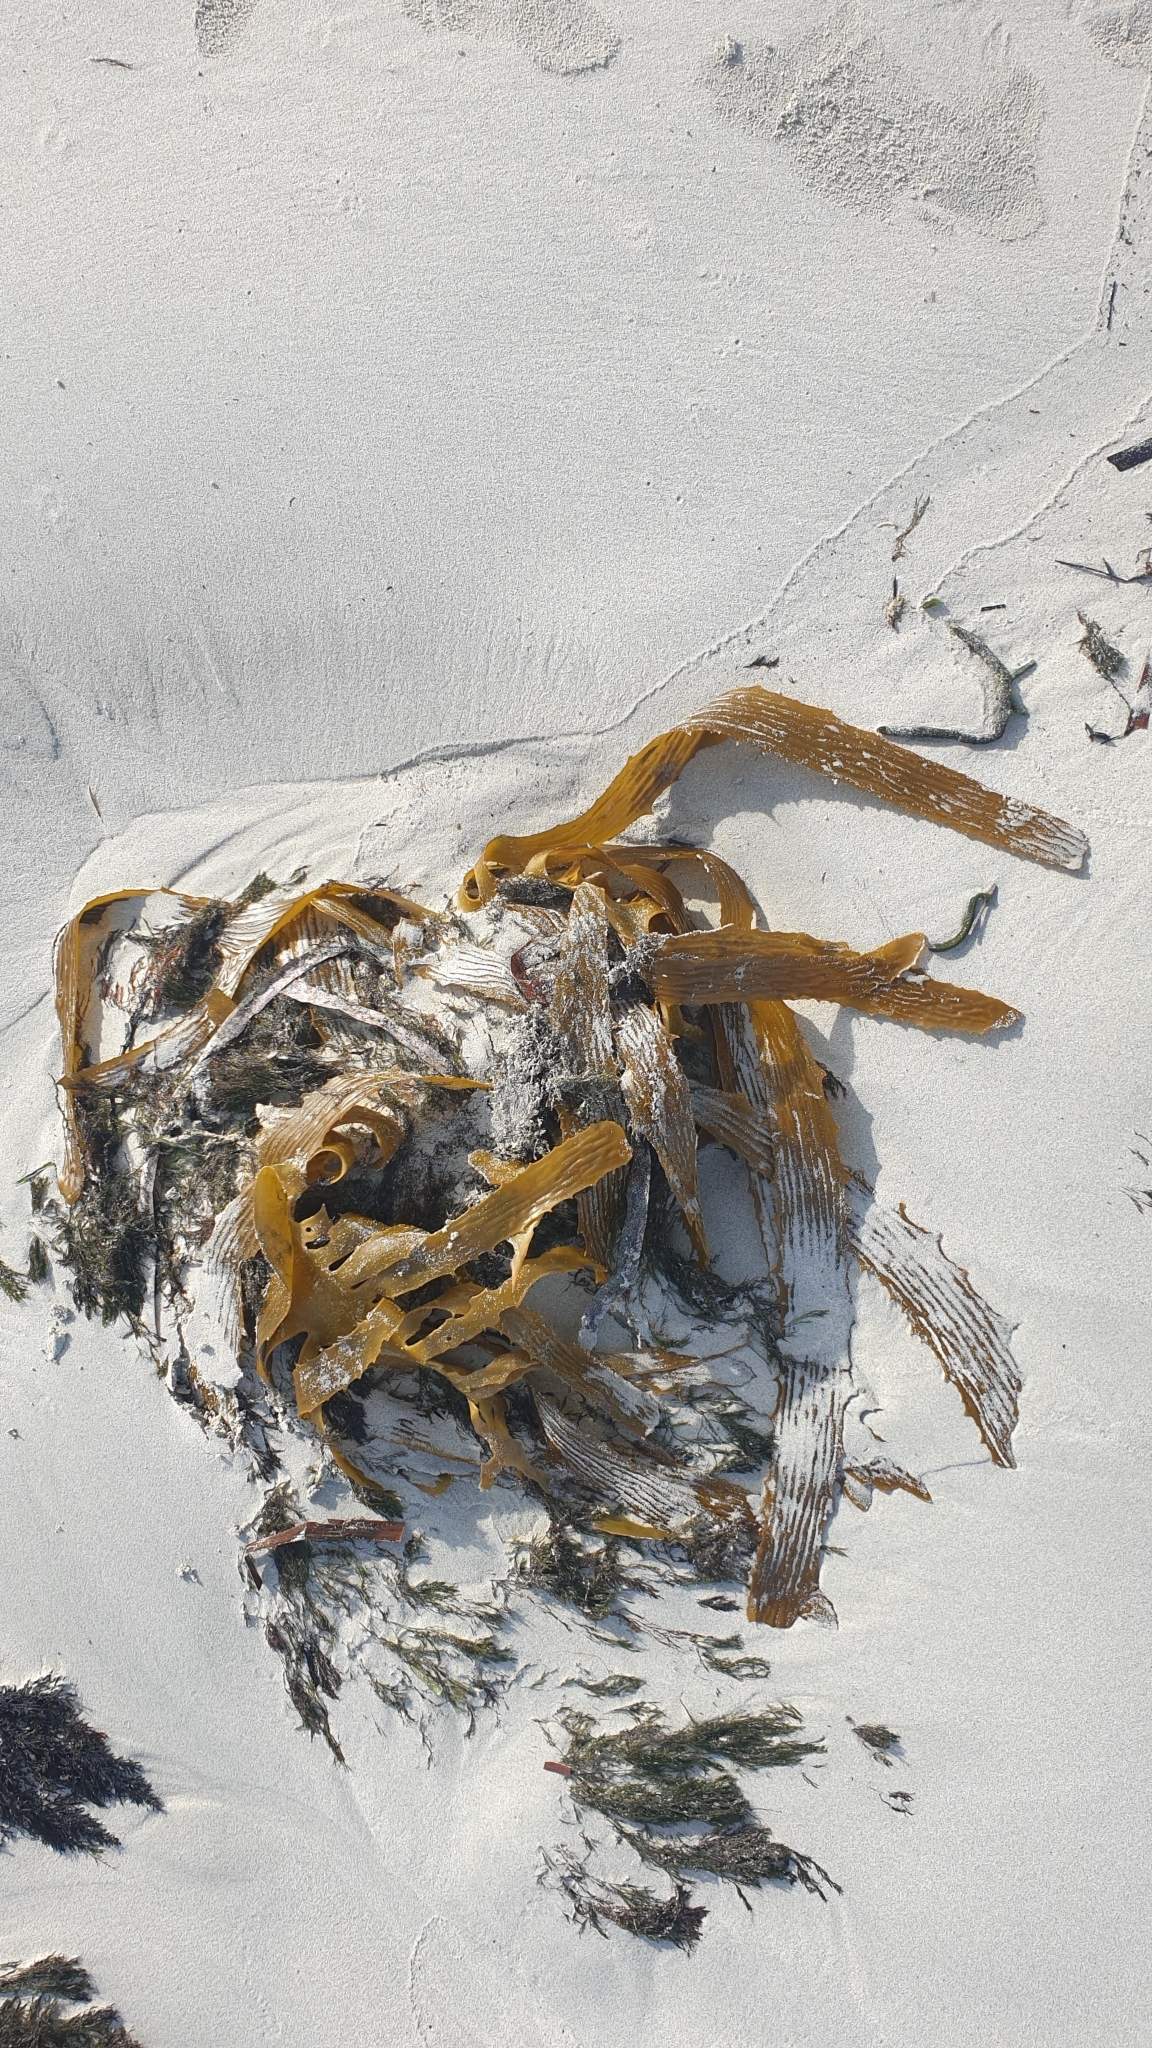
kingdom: Chromista
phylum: Ochrophyta
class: Phaeophyceae
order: Laminariales
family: Lessoniaceae
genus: Ecklonia
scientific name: Ecklonia radiata
